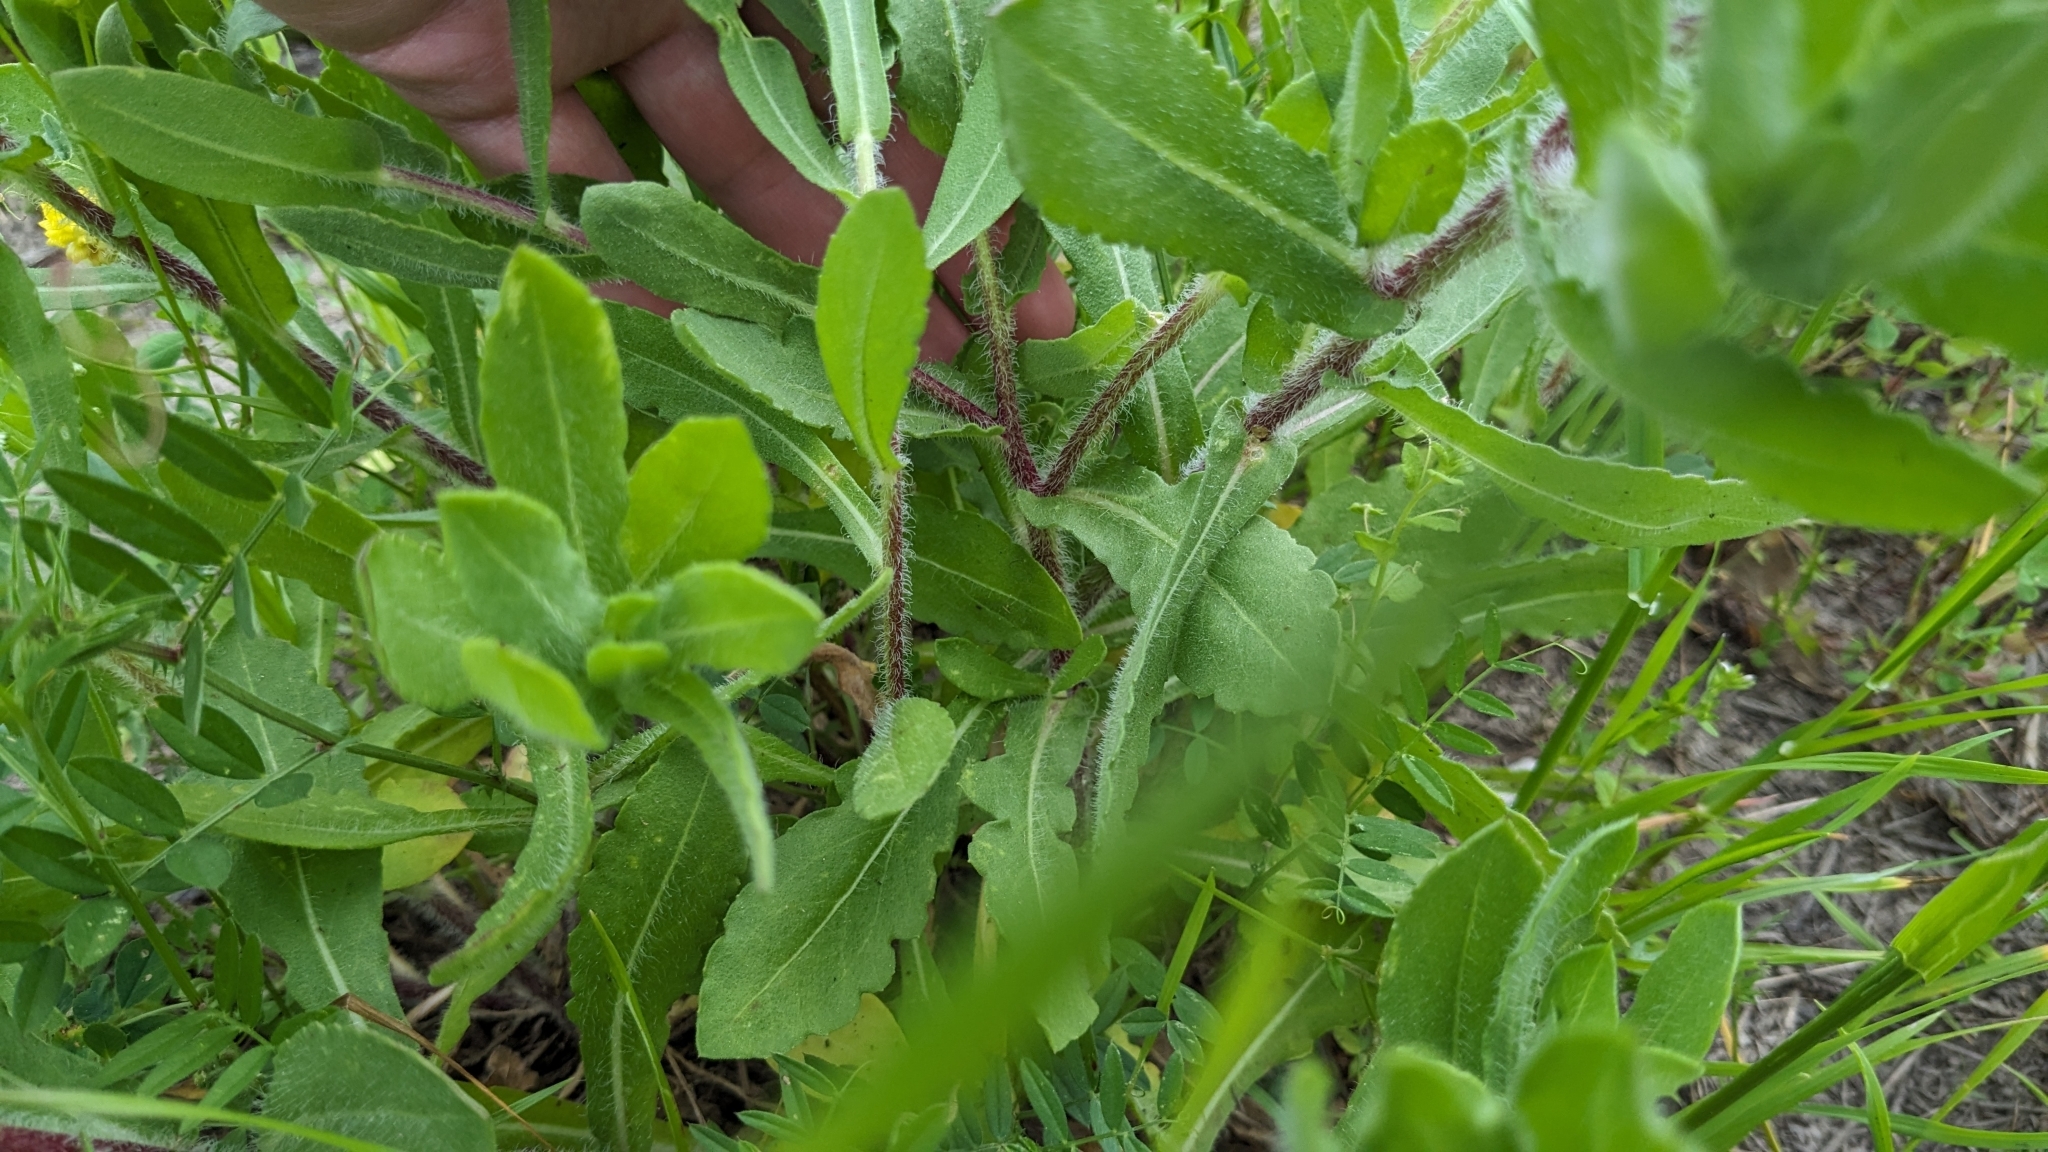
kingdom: Plantae
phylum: Tracheophyta
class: Magnoliopsida
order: Asterales
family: Asteraceae
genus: Gaillardia
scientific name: Gaillardia pulchella
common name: Firewheel
